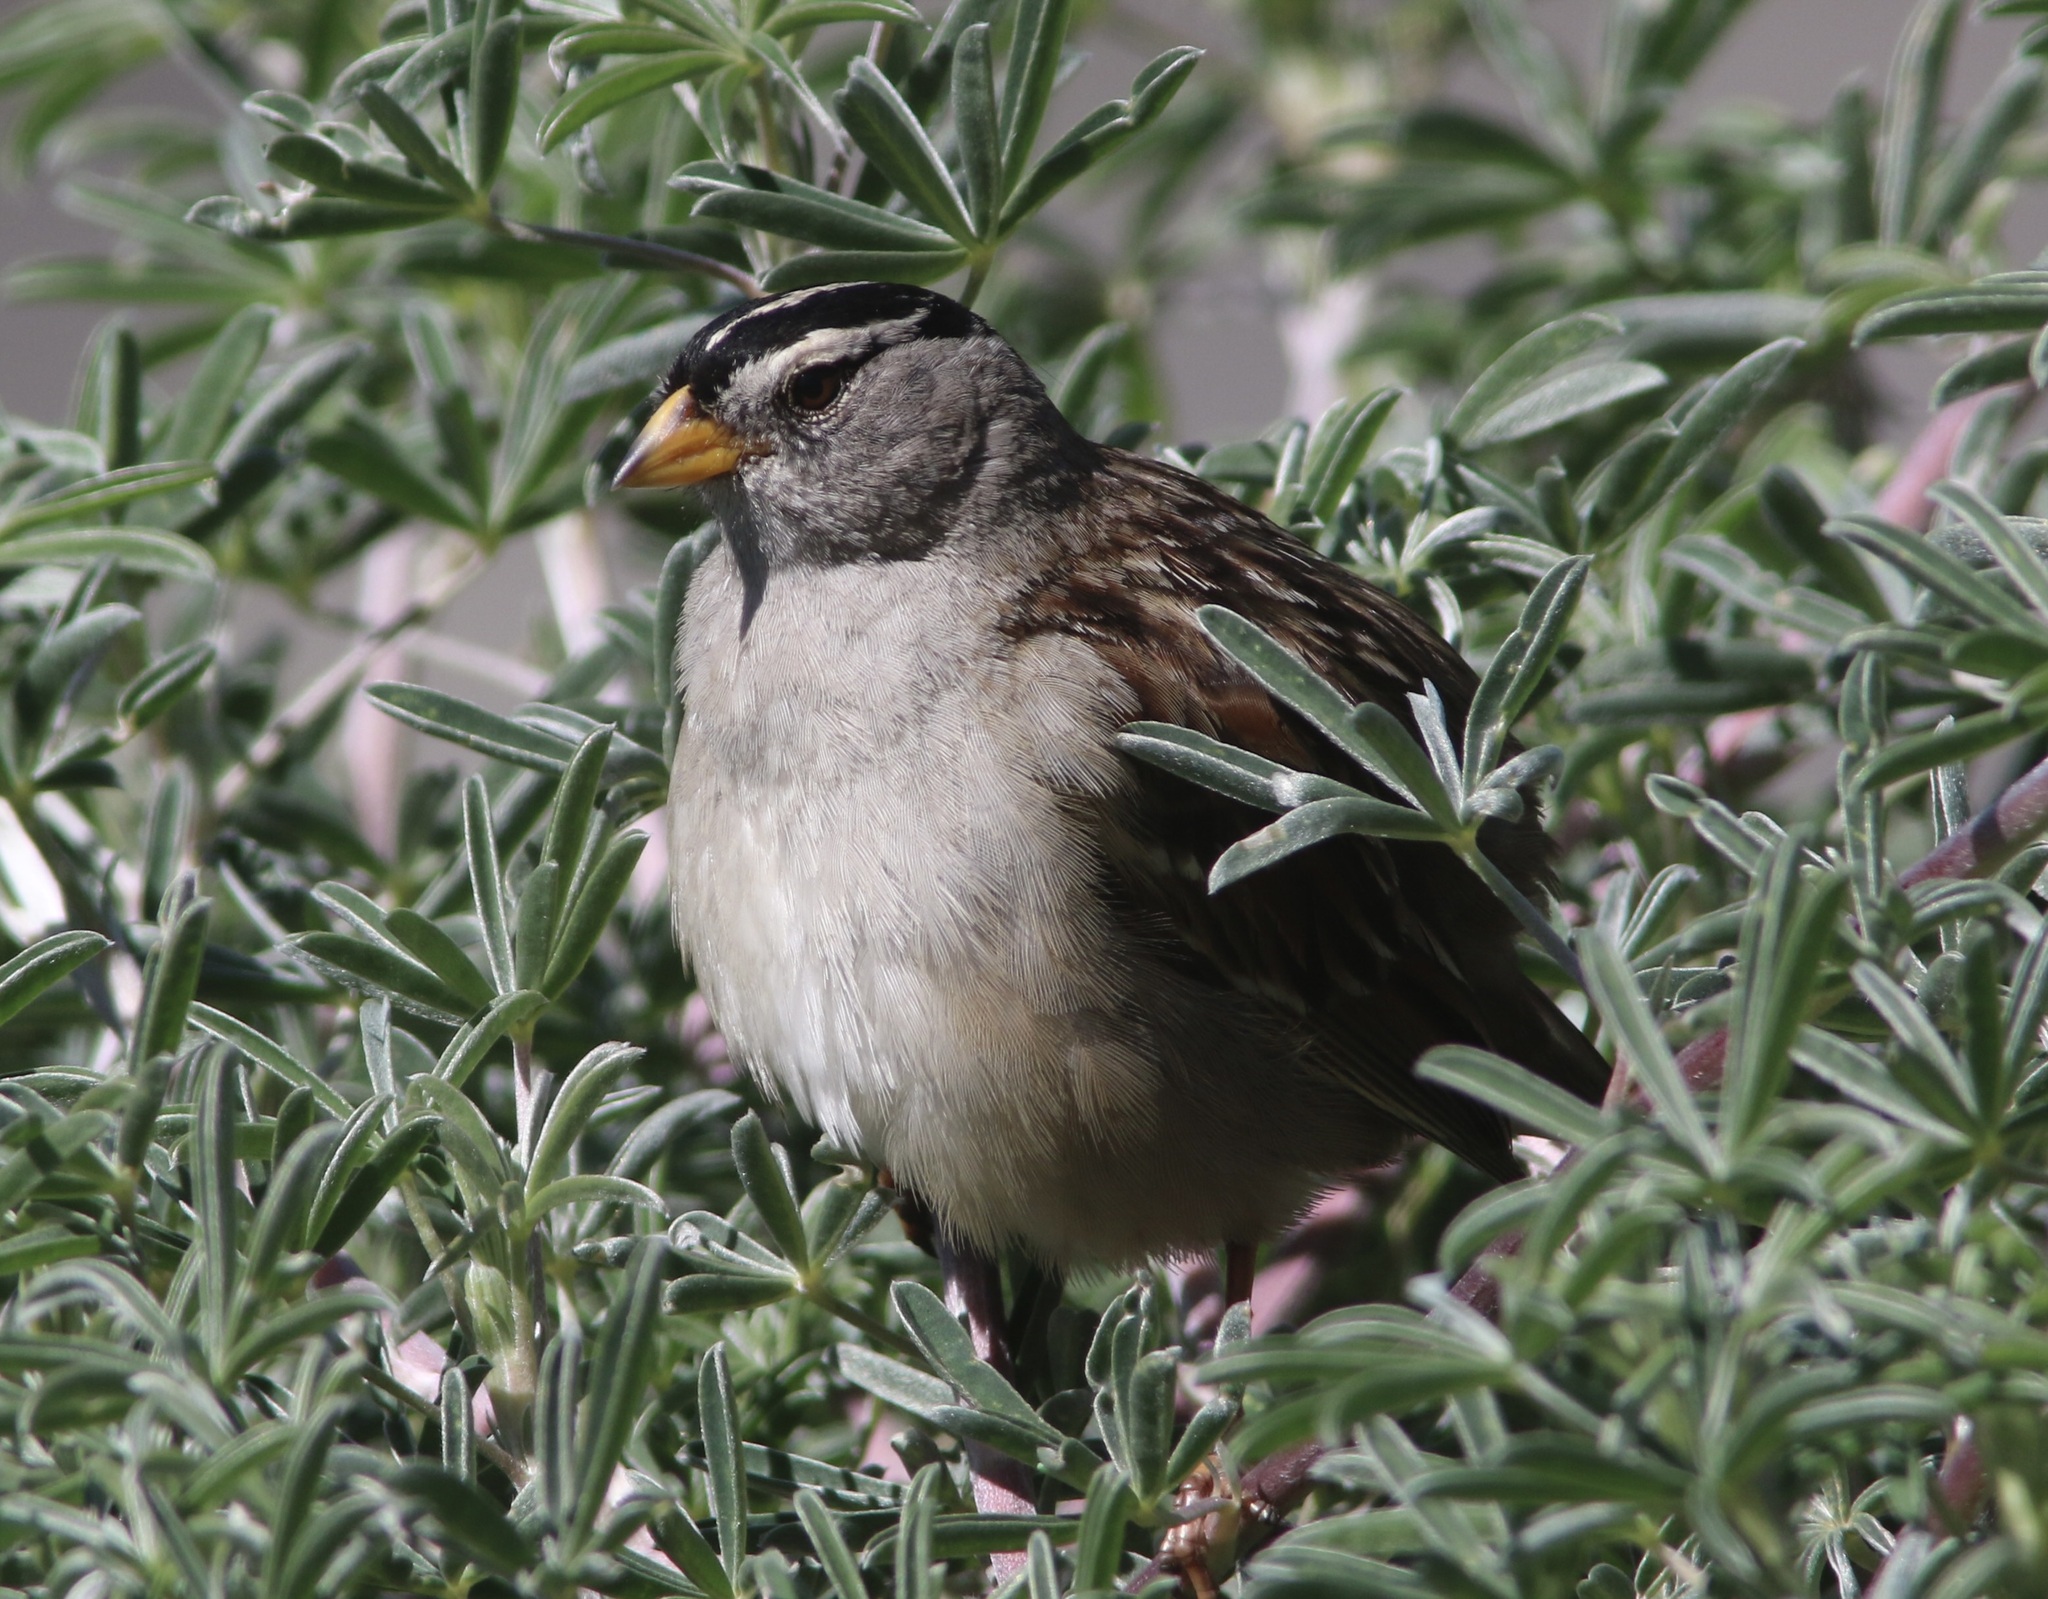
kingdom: Animalia
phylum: Chordata
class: Aves
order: Passeriformes
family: Passerellidae
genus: Zonotrichia
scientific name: Zonotrichia leucophrys
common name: White-crowned sparrow
